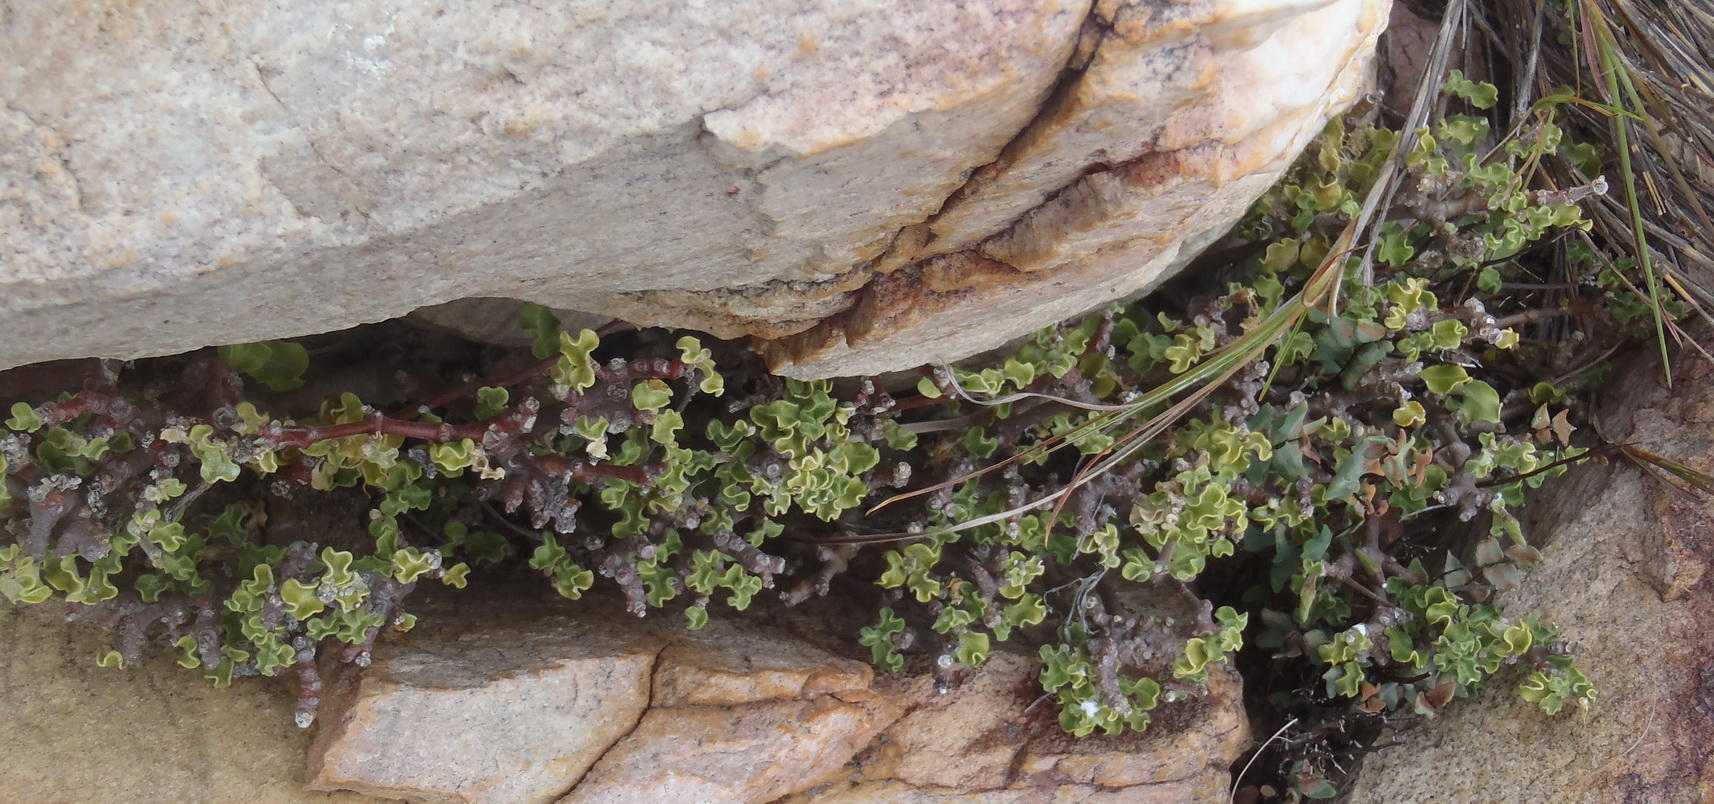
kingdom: Plantae
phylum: Tracheophyta
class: Magnoliopsida
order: Gentianales
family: Apocynaceae
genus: Fockea
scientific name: Fockea capensis
